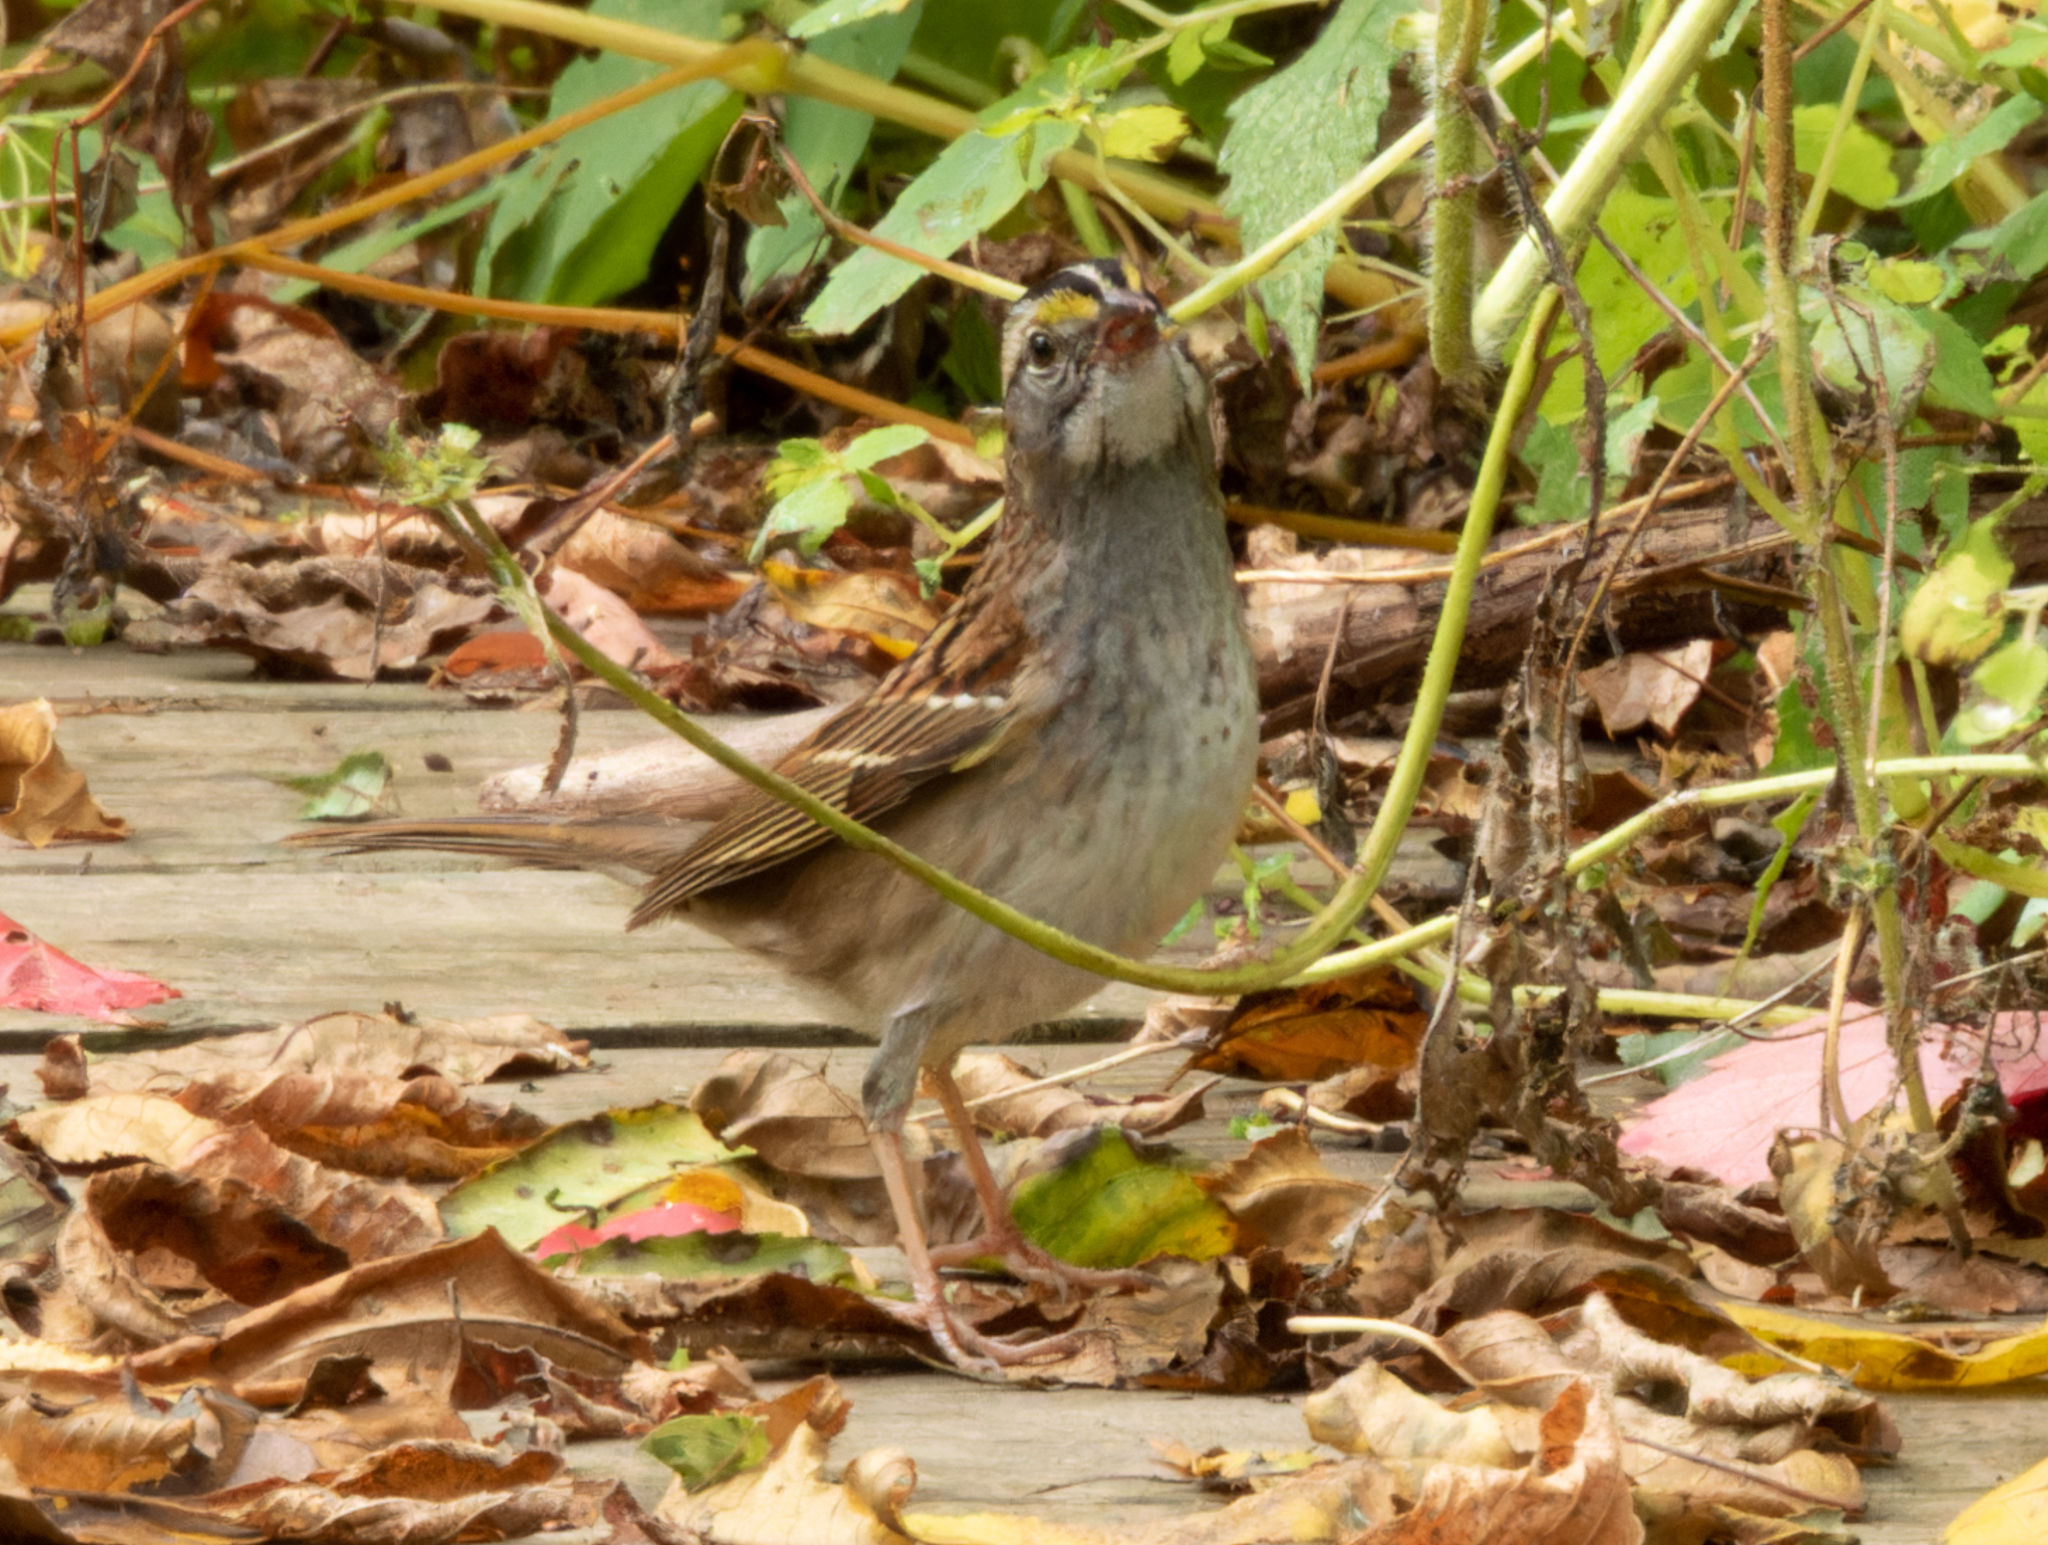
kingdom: Animalia
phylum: Chordata
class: Aves
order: Passeriformes
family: Passerellidae
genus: Zonotrichia
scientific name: Zonotrichia albicollis
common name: White-throated sparrow
